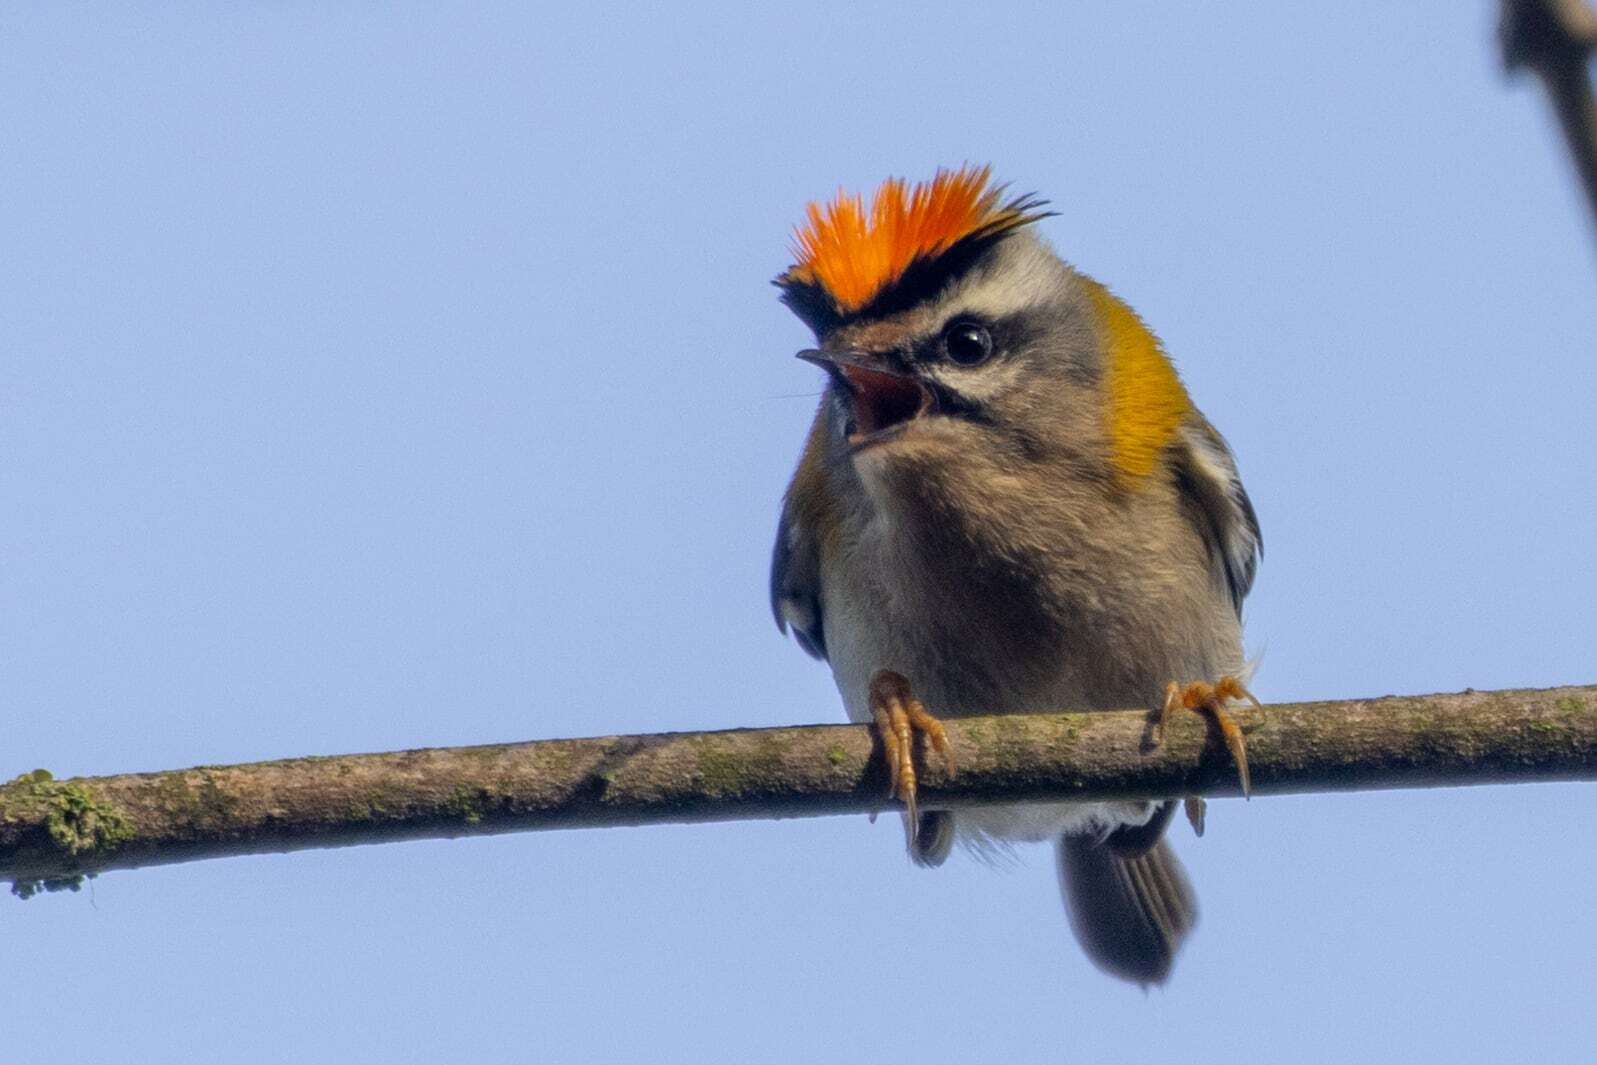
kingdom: Animalia
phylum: Chordata
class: Aves
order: Passeriformes
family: Regulidae
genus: Regulus
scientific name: Regulus ignicapilla
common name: Firecrest
